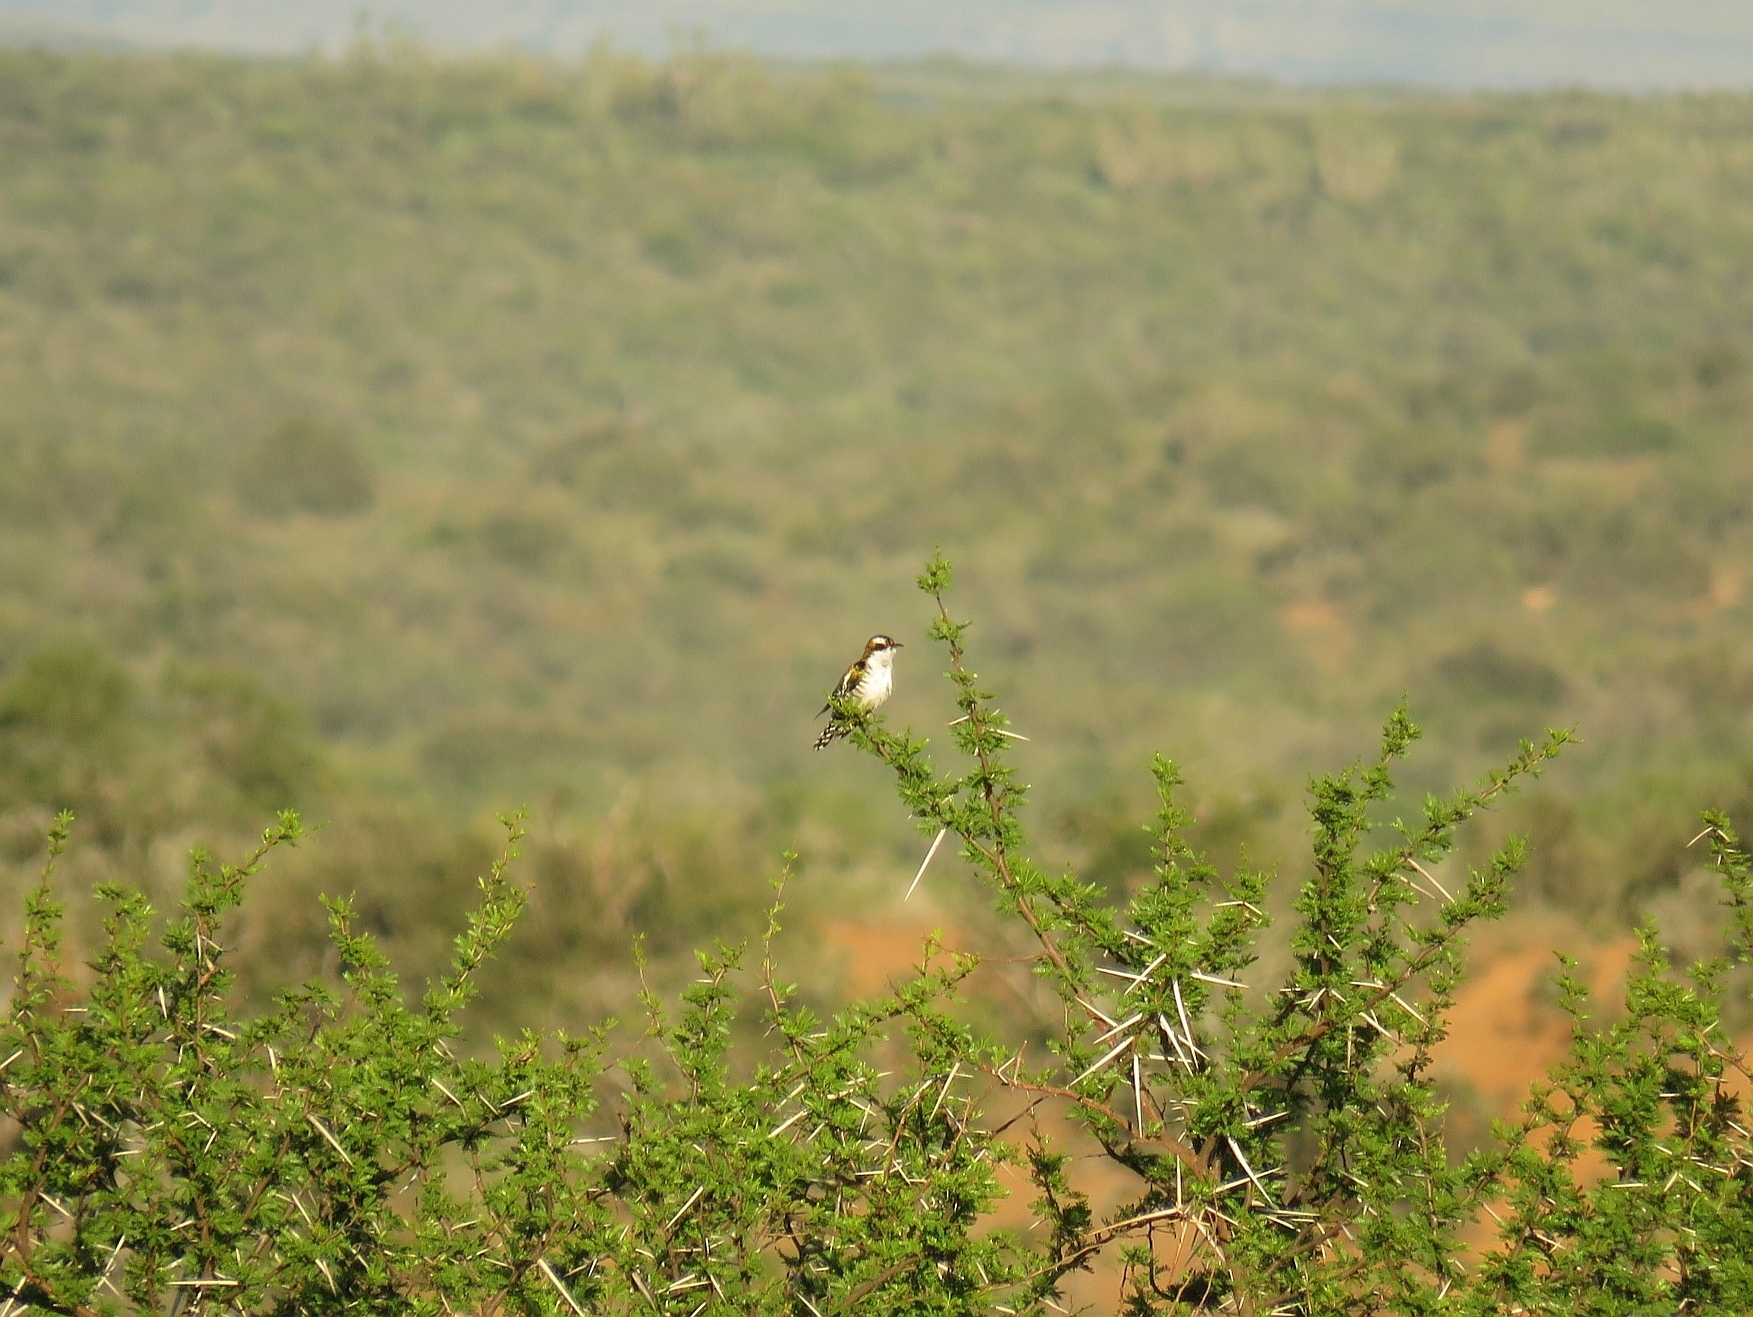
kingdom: Animalia
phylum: Chordata
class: Aves
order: Cuculiformes
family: Cuculidae
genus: Chrysococcyx
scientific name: Chrysococcyx caprius
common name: Diederik cuckoo
